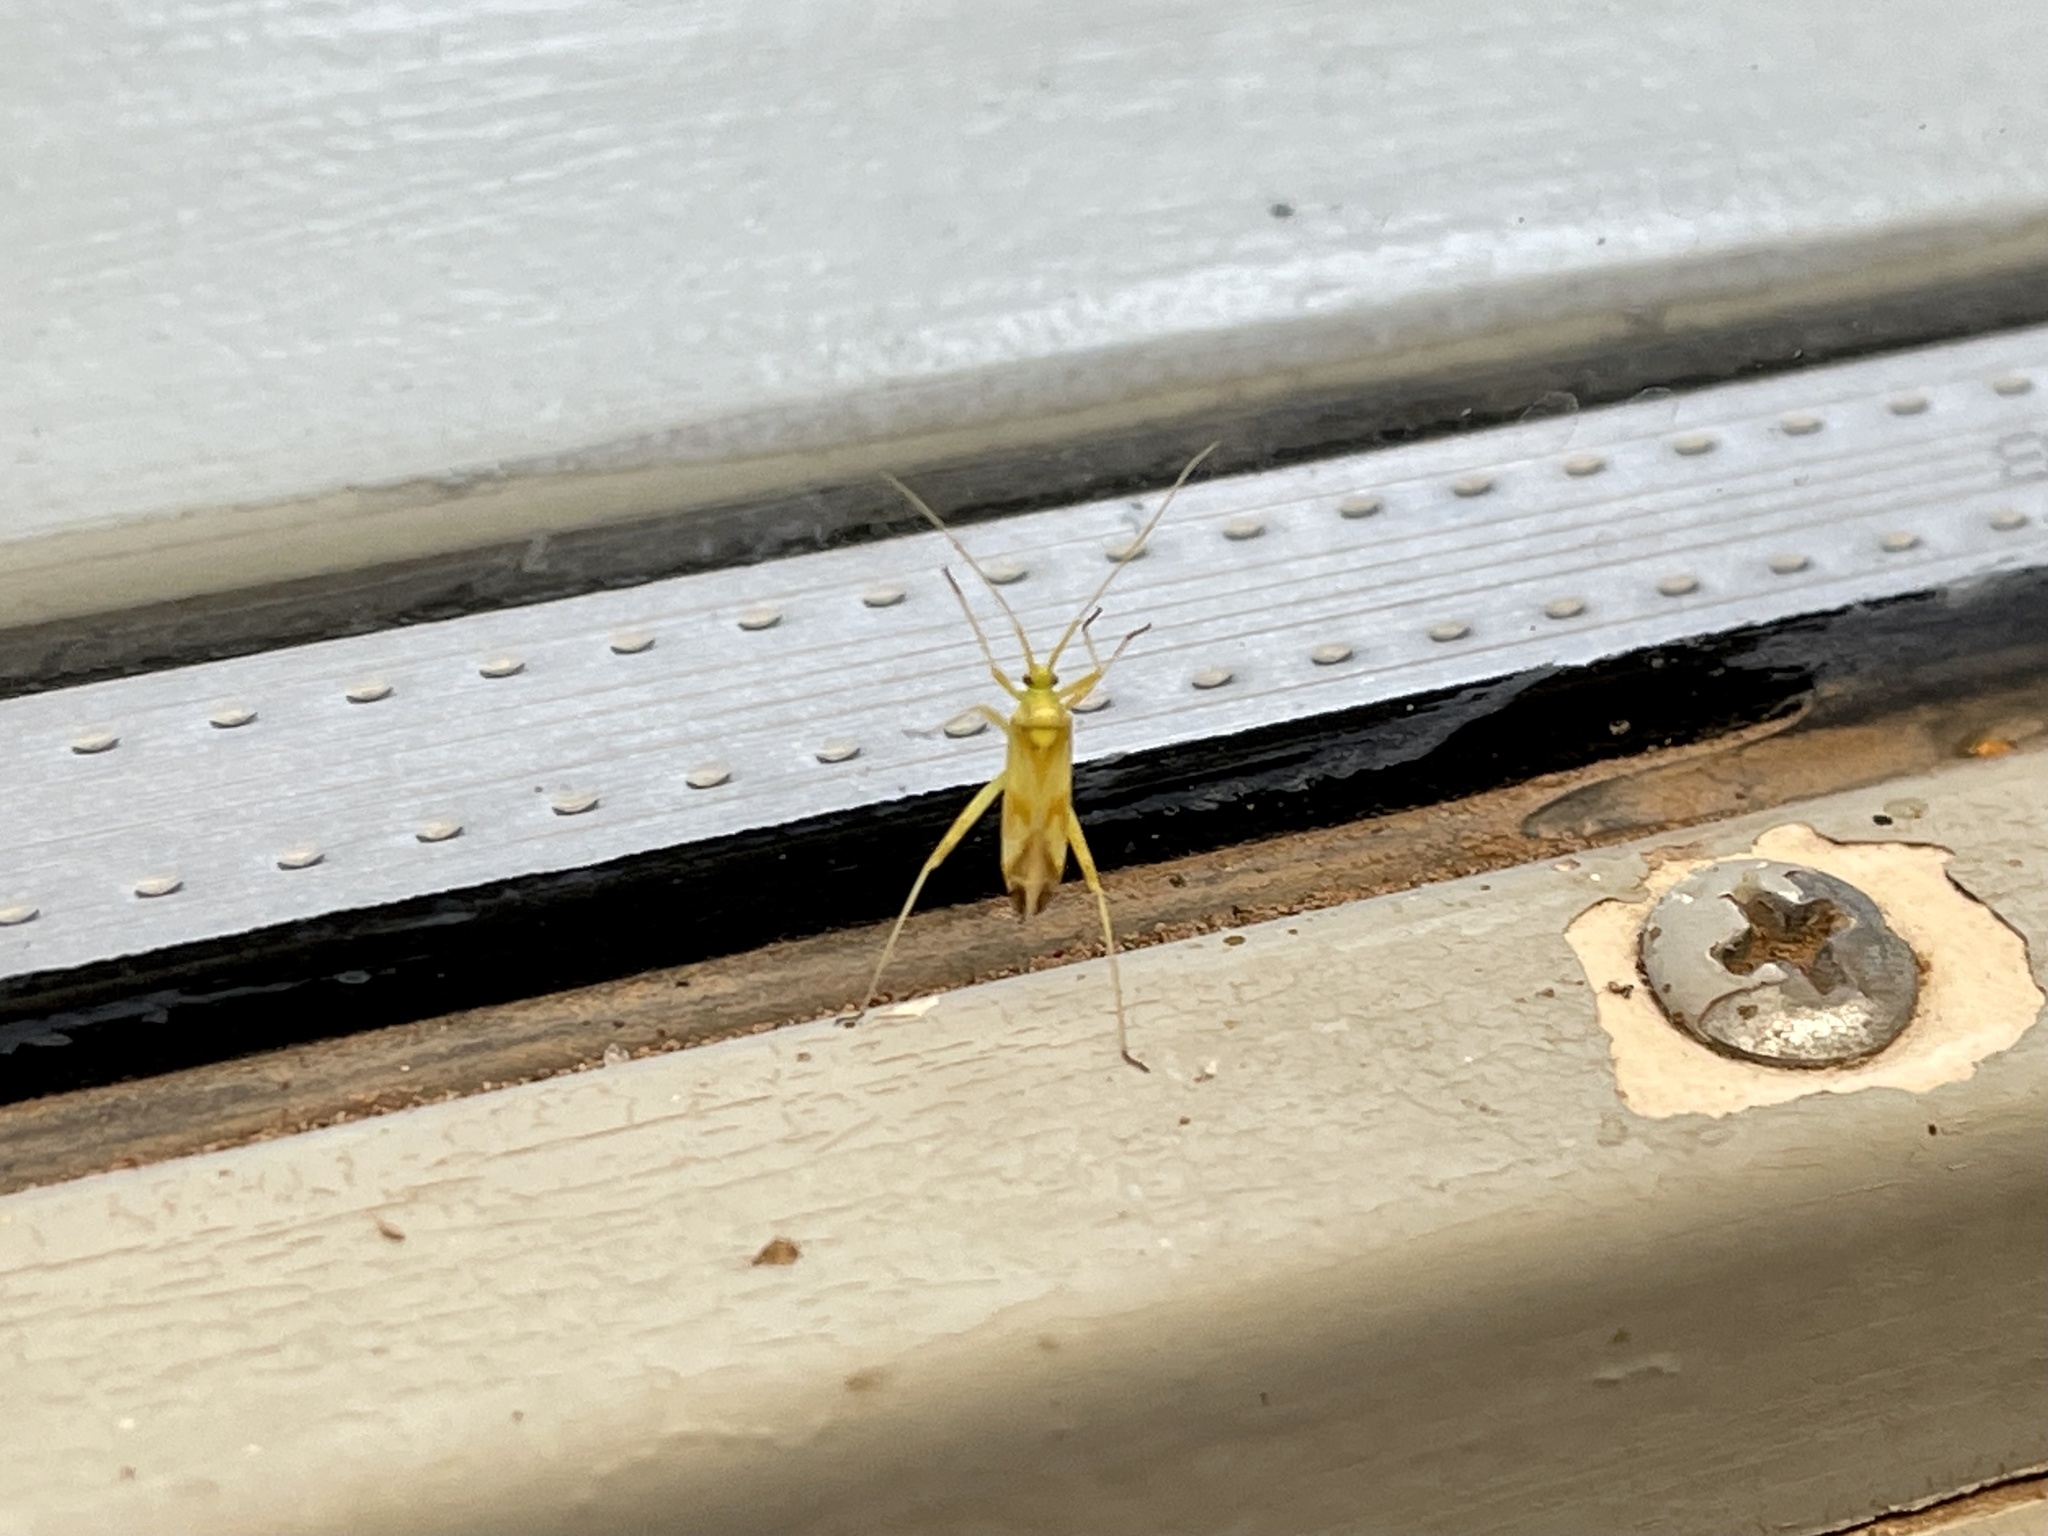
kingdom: Animalia
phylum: Arthropoda
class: Insecta
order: Hemiptera
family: Miridae
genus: Phytocoris
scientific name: Phytocoris laevis
